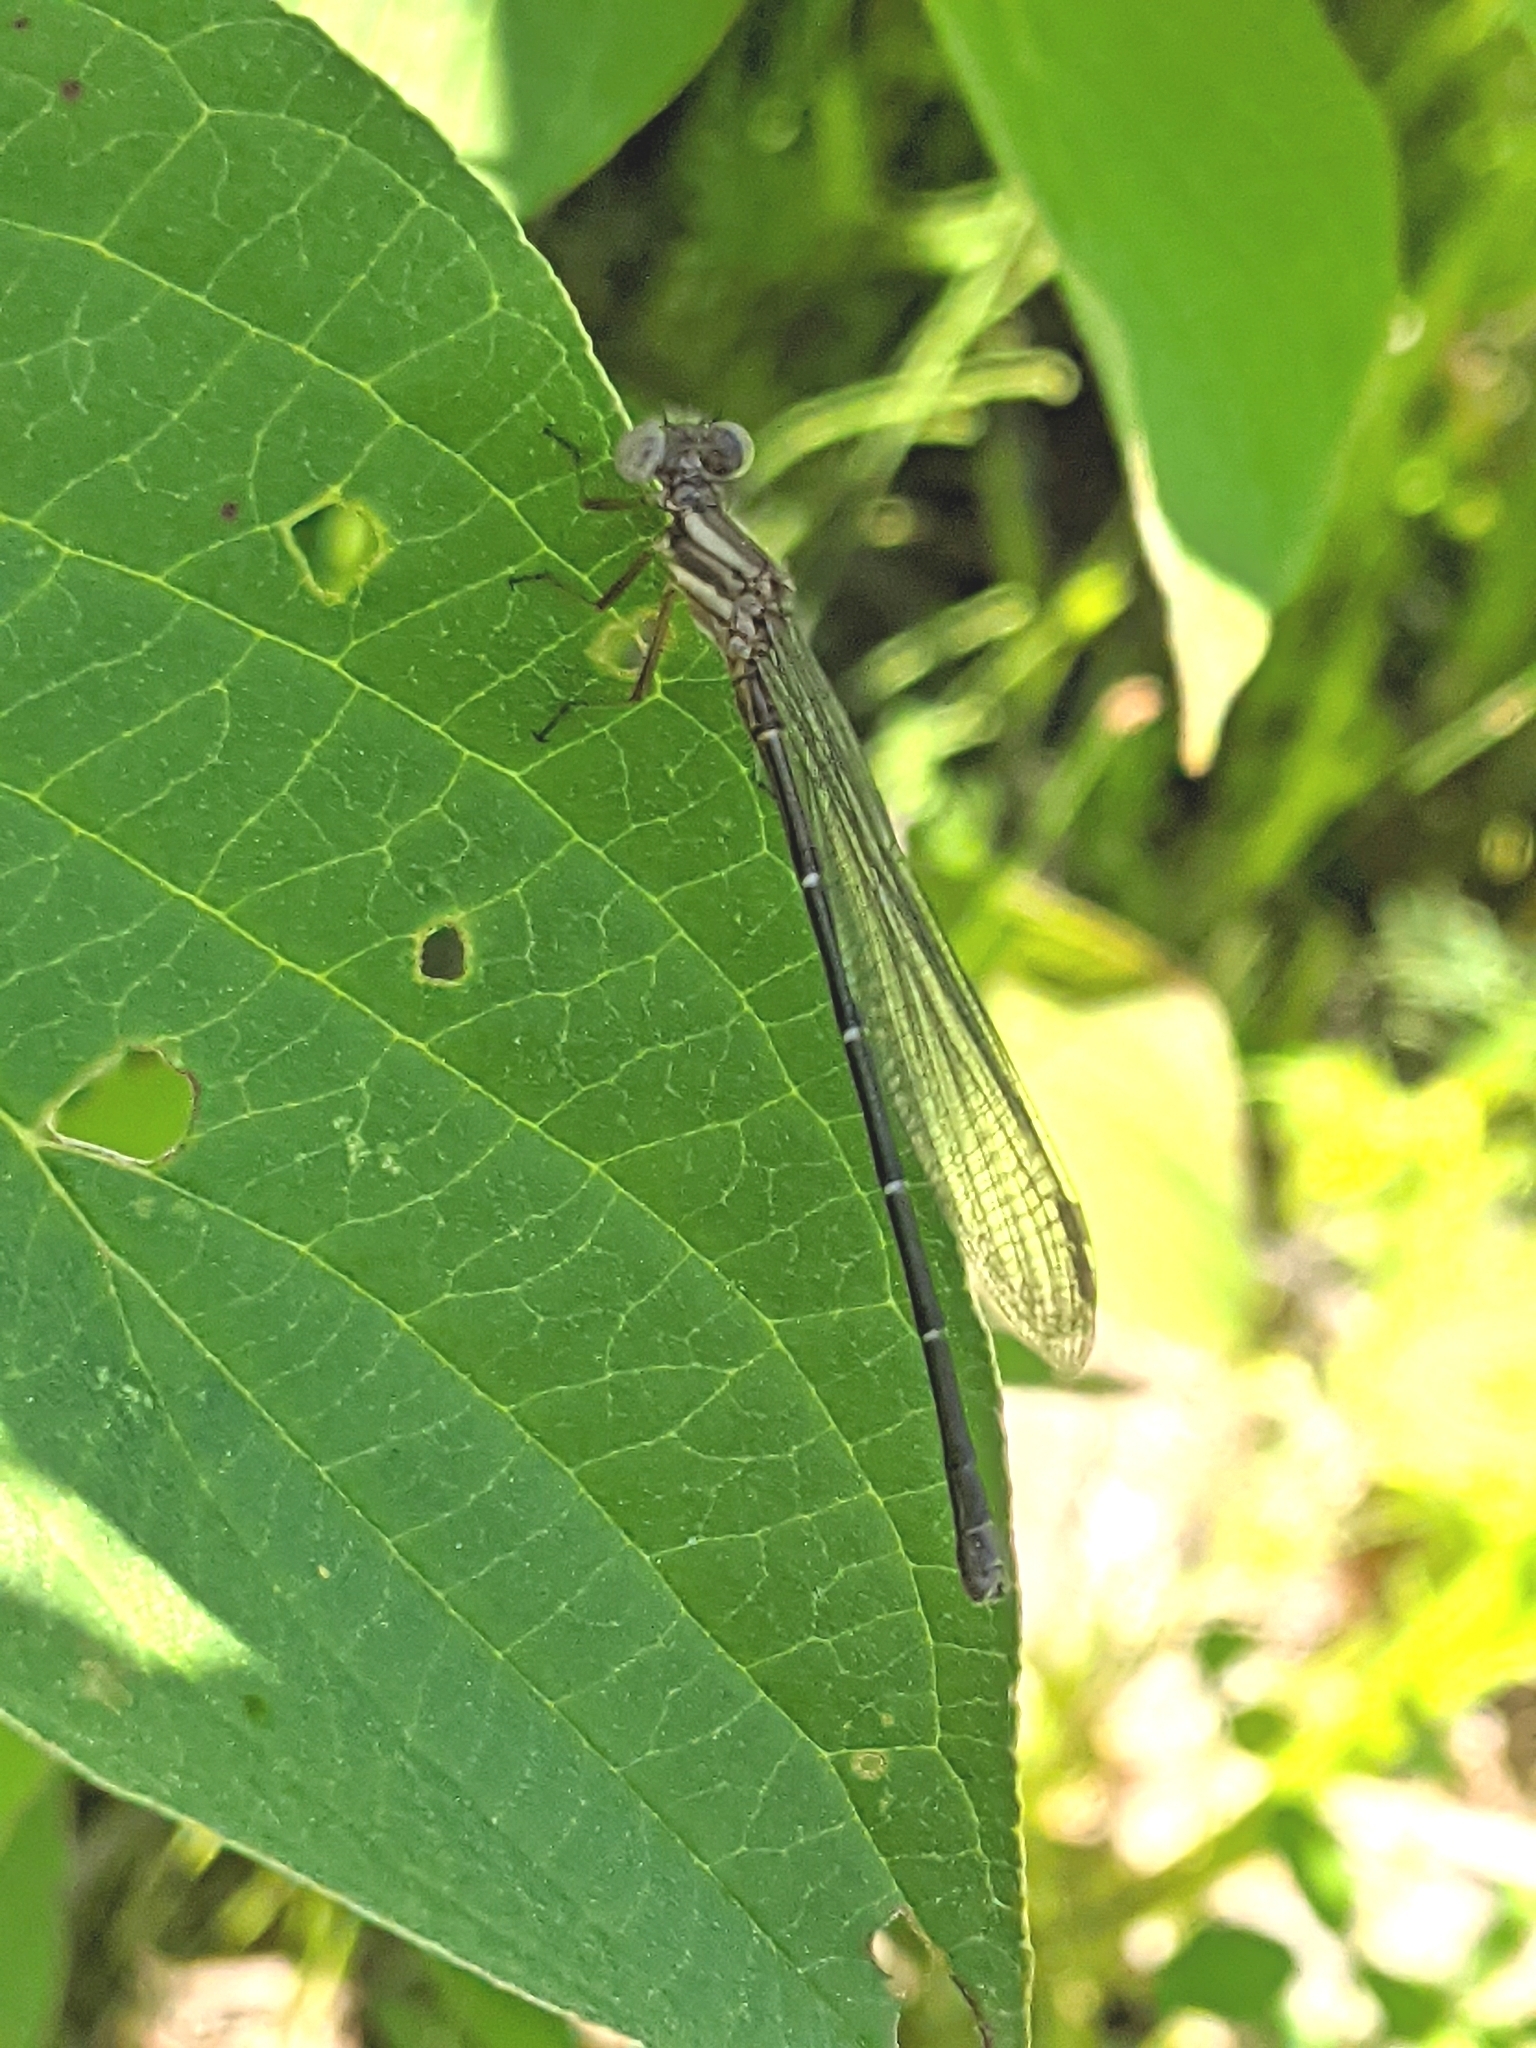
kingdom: Animalia
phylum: Arthropoda
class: Insecta
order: Odonata
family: Coenagrionidae
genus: Argia
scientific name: Argia moesta
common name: Powdered dancer
